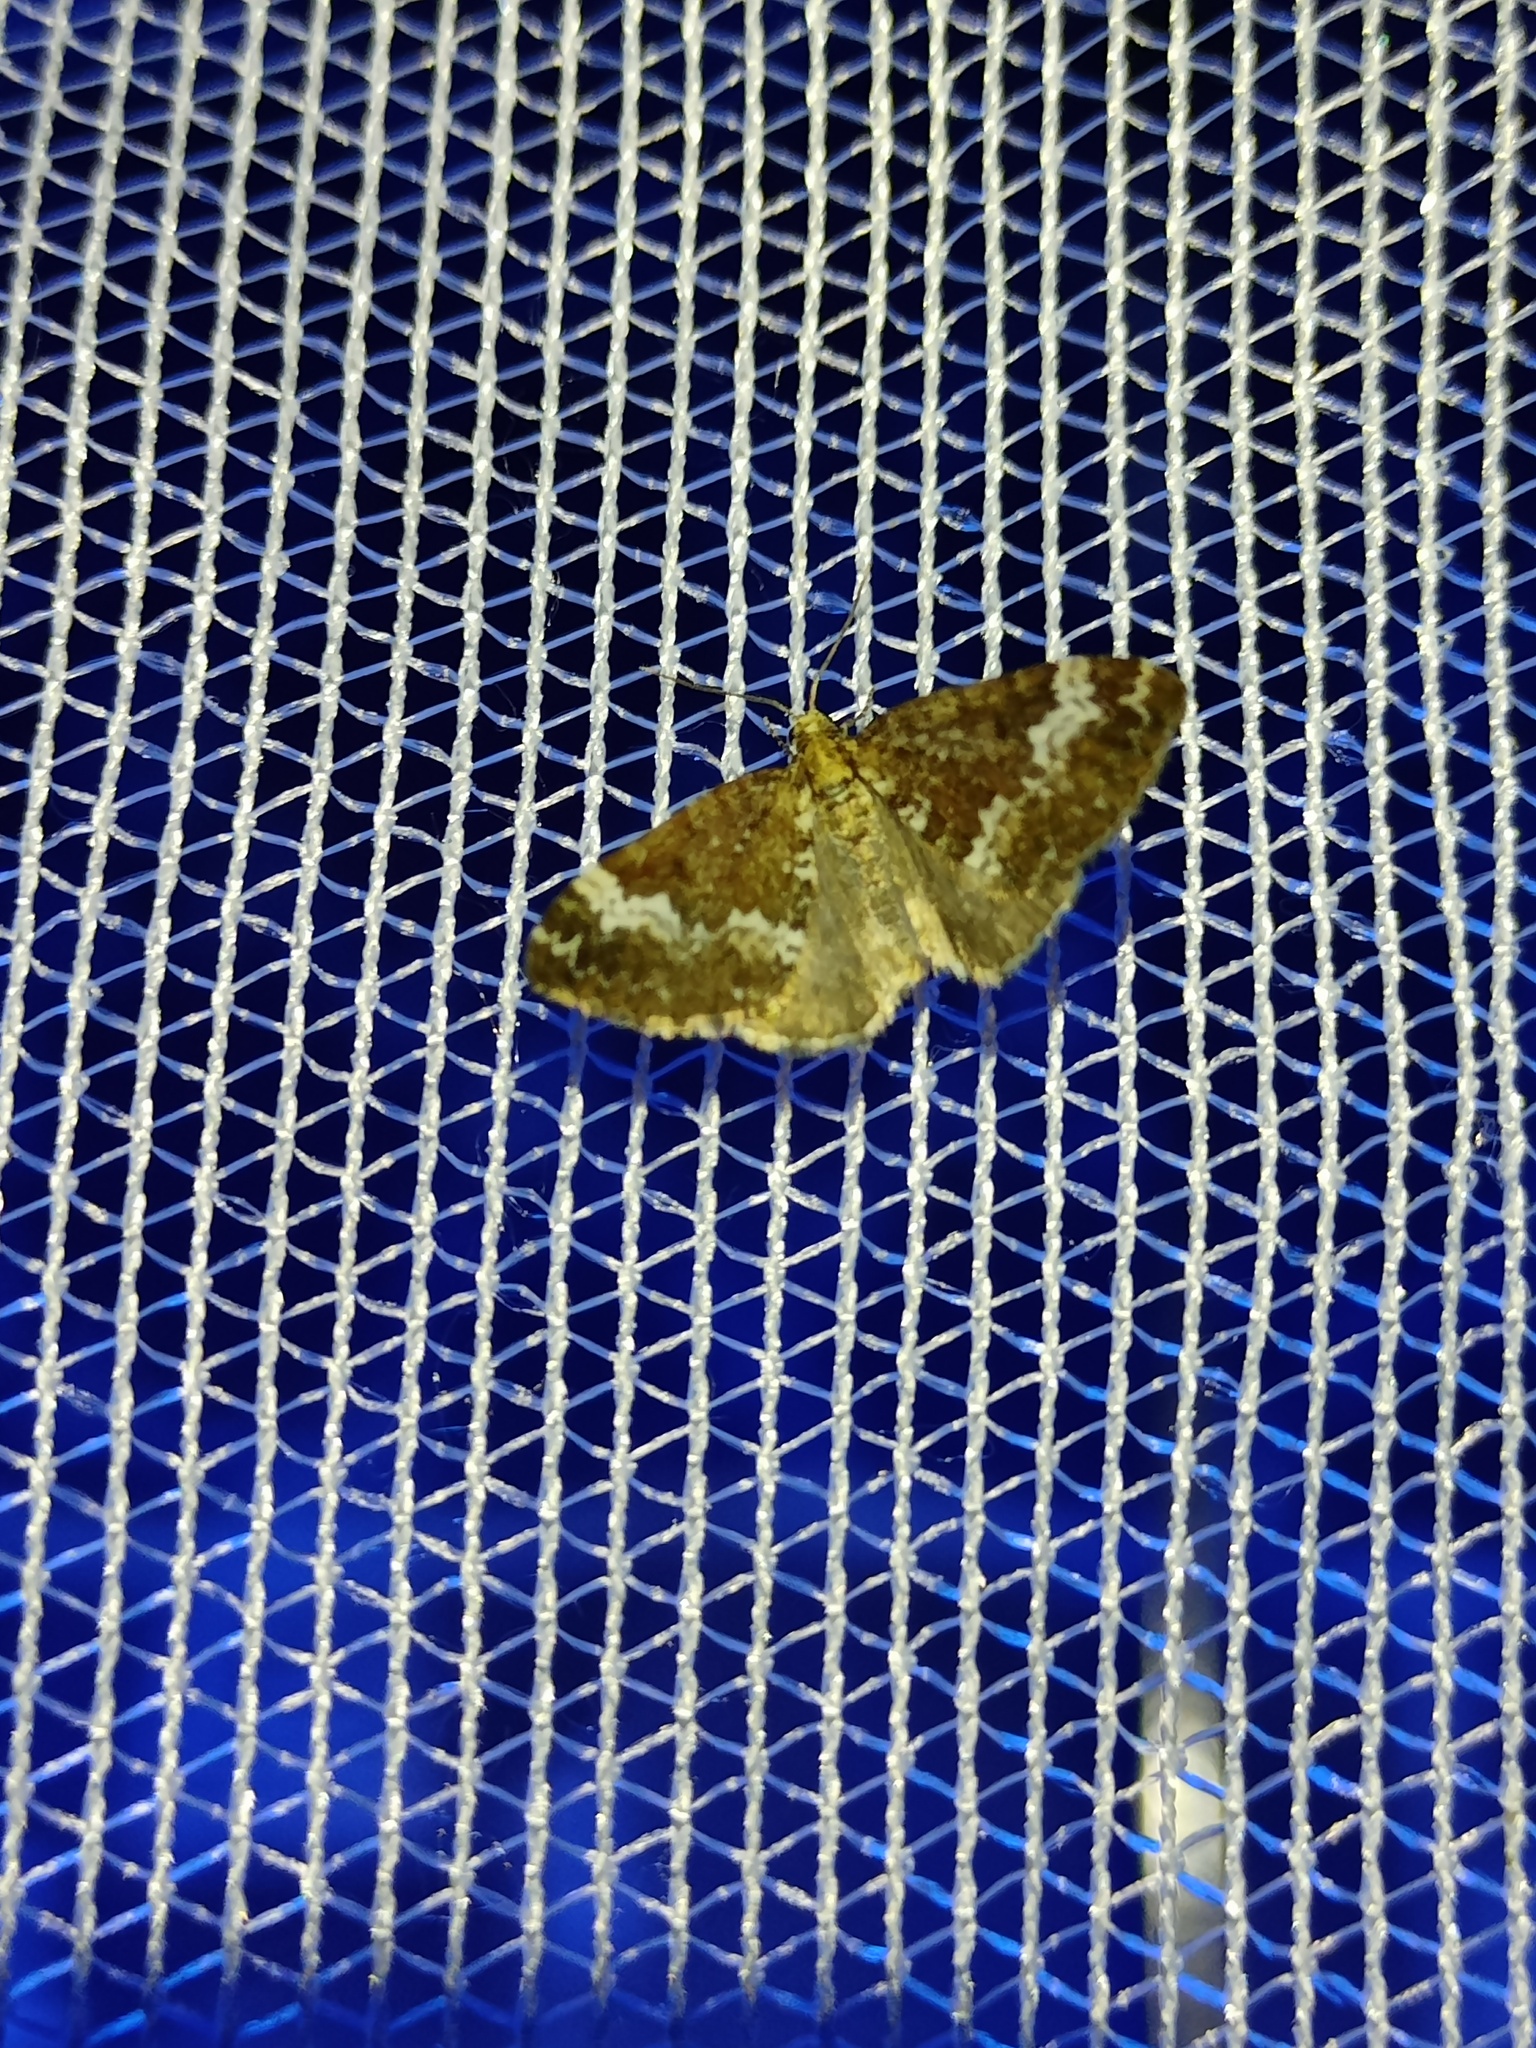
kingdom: Animalia
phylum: Arthropoda
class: Insecta
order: Lepidoptera
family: Geometridae
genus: Perizoma
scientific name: Perizoma alchemillata
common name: Small rivulet
